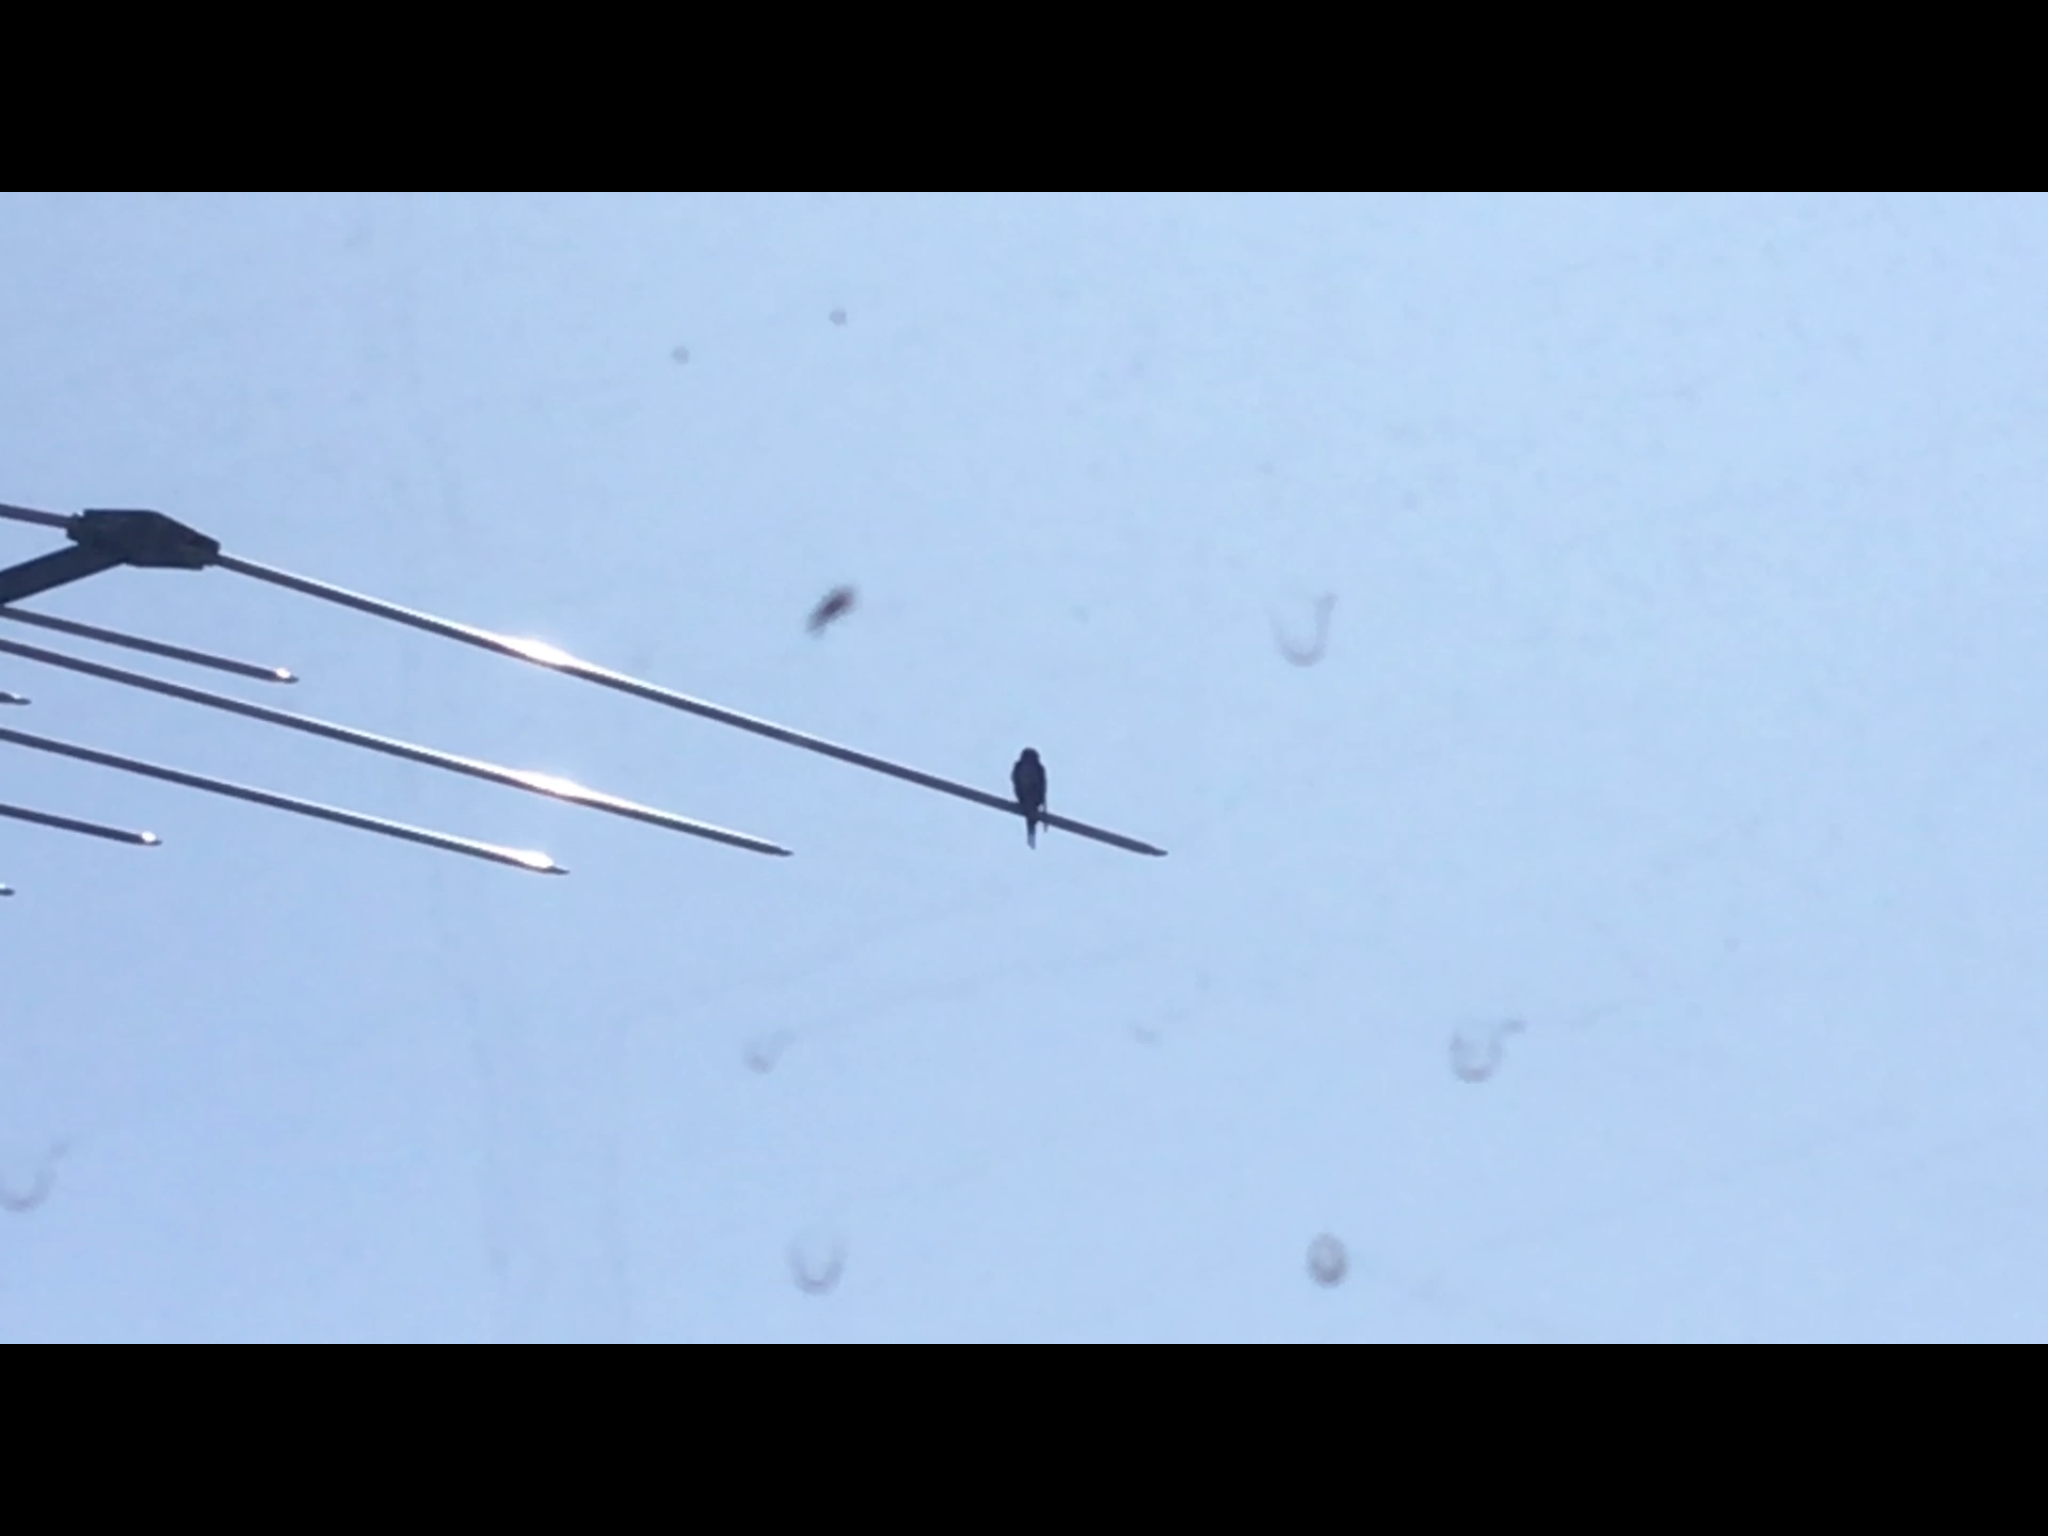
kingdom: Animalia
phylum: Chordata
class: Aves
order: Passeriformes
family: Hirundinidae
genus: Hirundo
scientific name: Hirundo neoxena
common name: Welcome swallow
